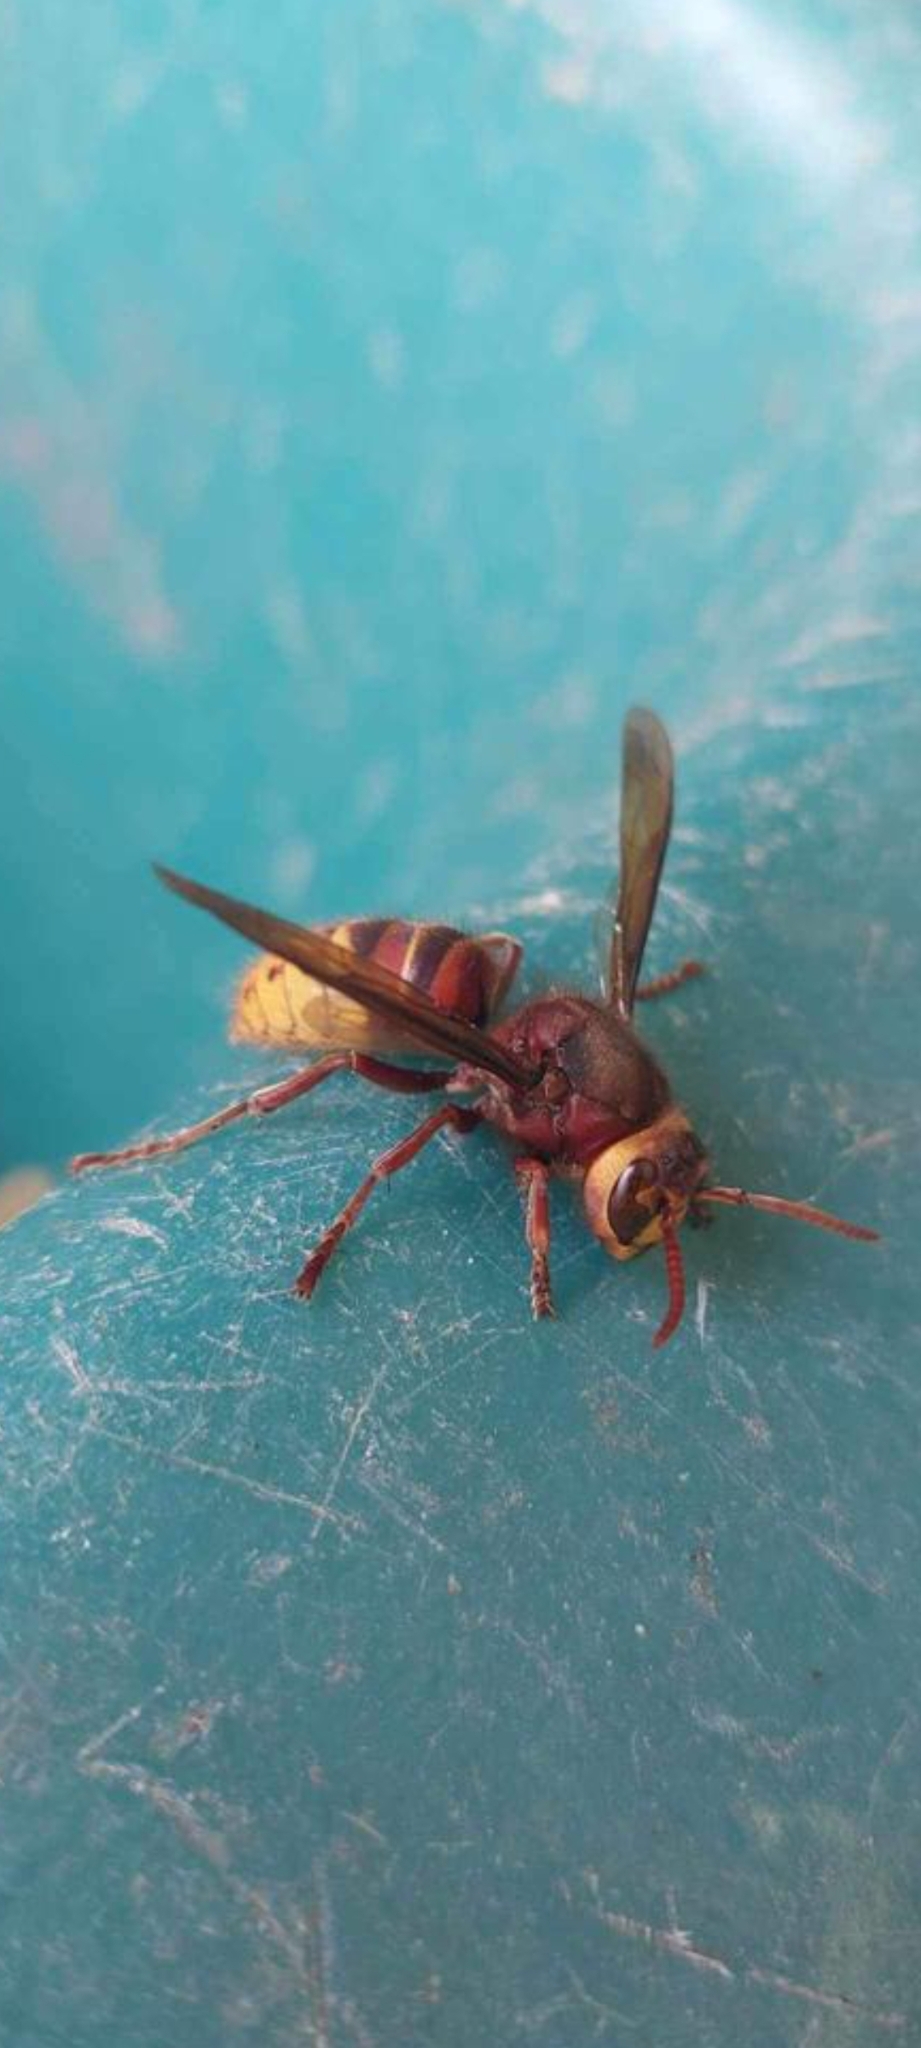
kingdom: Animalia
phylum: Arthropoda
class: Insecta
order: Hymenoptera
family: Vespidae
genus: Vespa
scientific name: Vespa crabro
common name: Hornet
